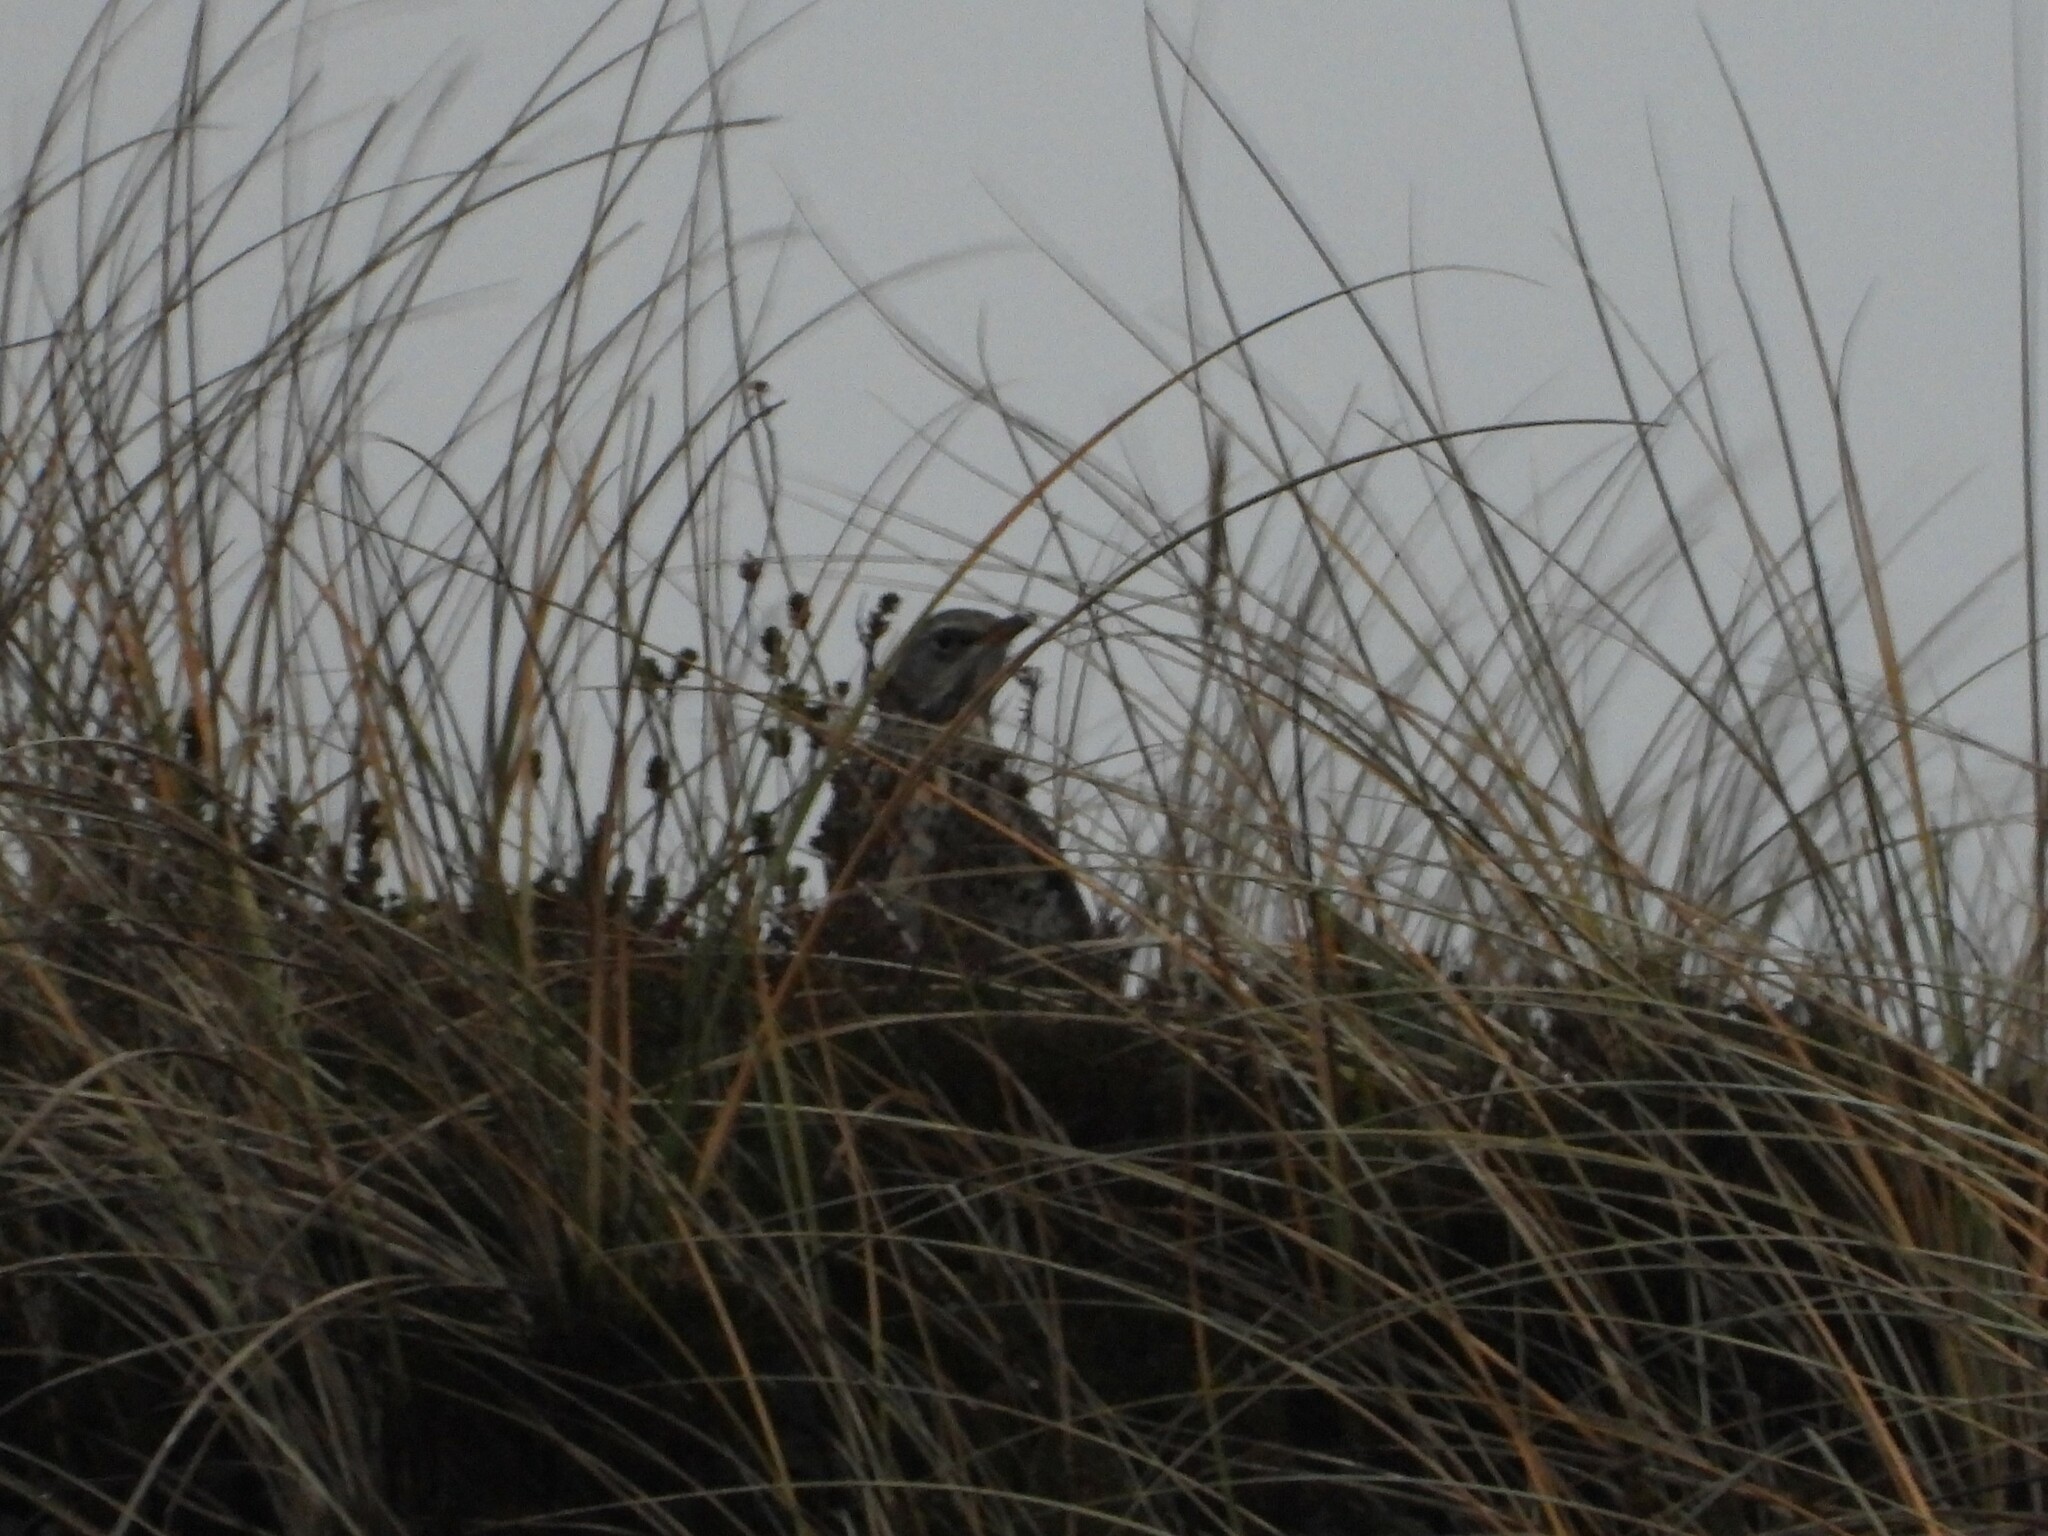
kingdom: Animalia
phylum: Chordata
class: Aves
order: Passeriformes
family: Turdidae
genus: Turdus
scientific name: Turdus pilaris
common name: Fieldfare
